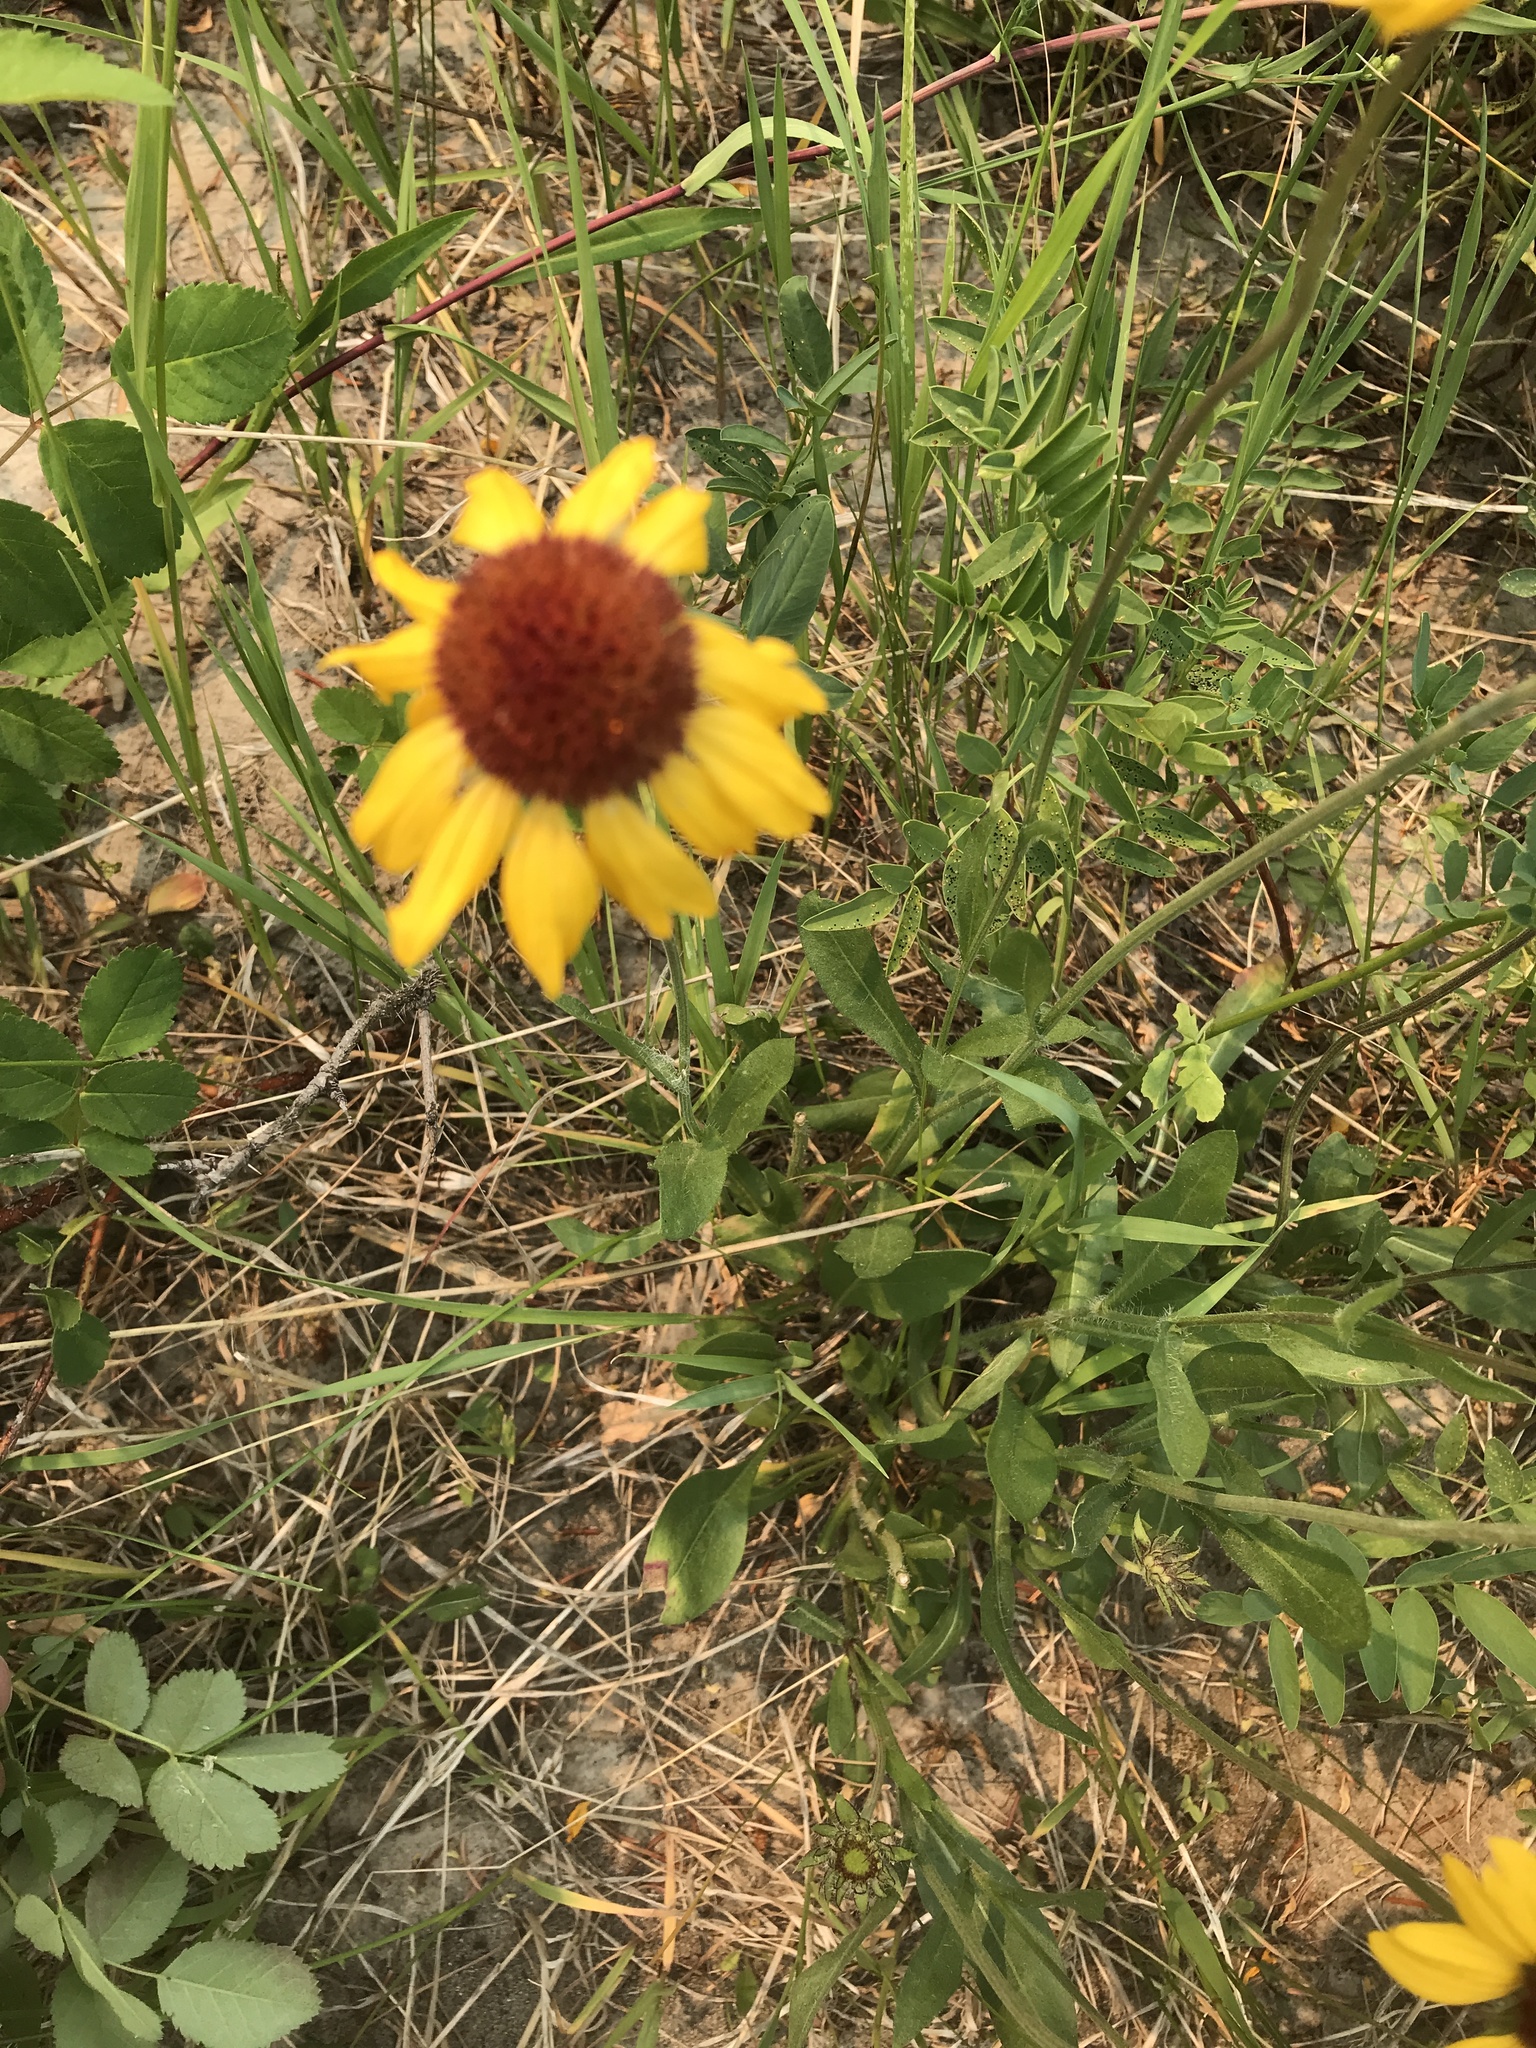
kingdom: Plantae
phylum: Tracheophyta
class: Magnoliopsida
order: Asterales
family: Asteraceae
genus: Gaillardia
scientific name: Gaillardia aristata
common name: Blanket-flower
